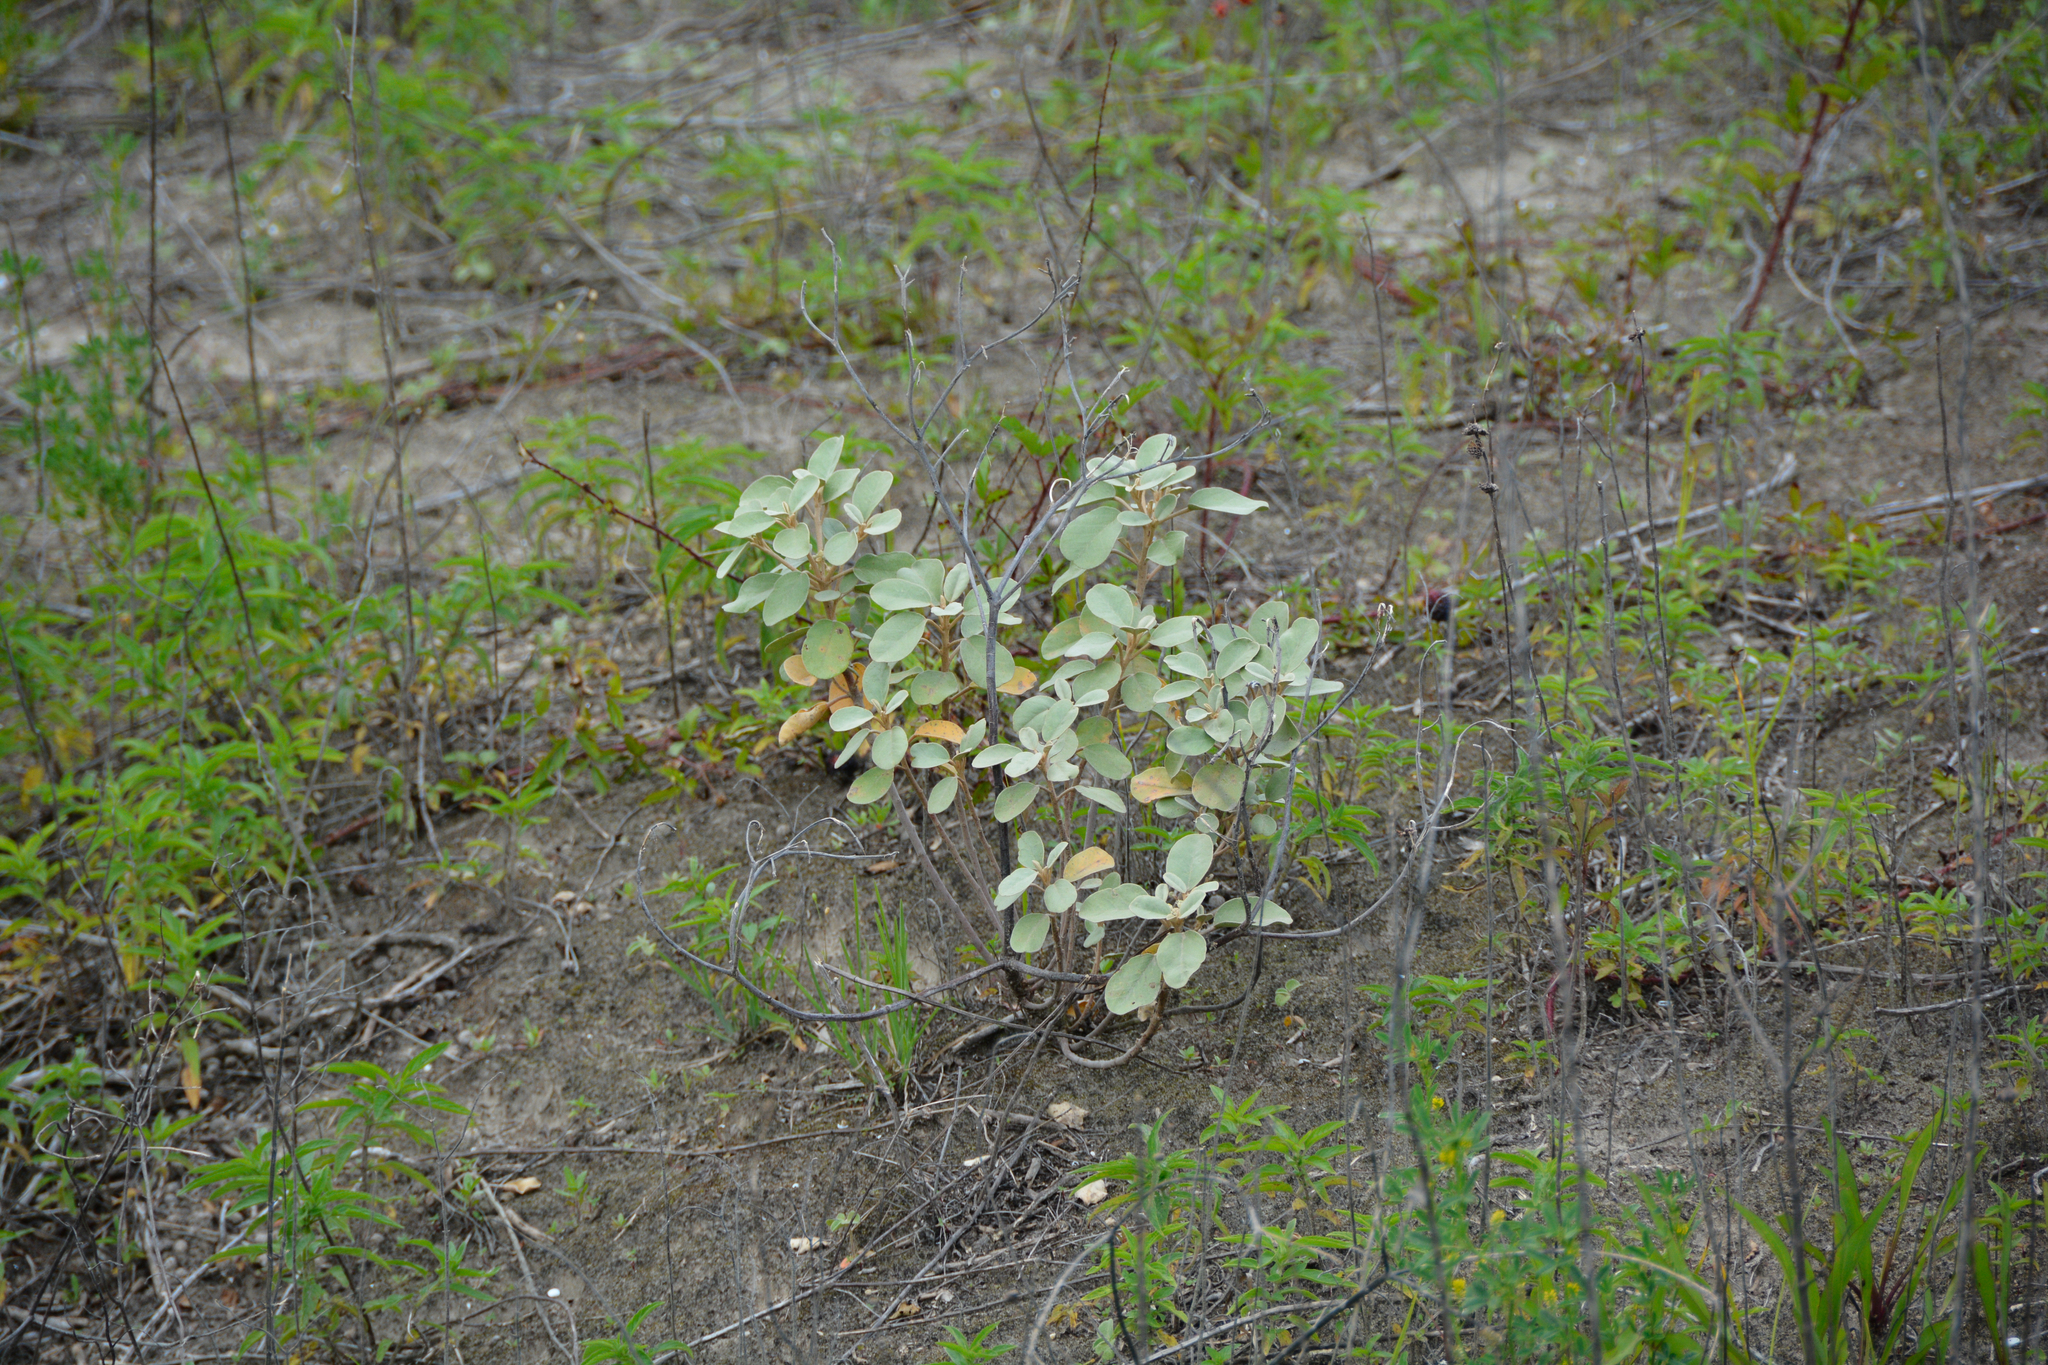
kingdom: Plantae
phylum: Tracheophyta
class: Magnoliopsida
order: Malpighiales
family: Euphorbiaceae
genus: Croton
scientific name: Croton punctatus
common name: Beach-tea
